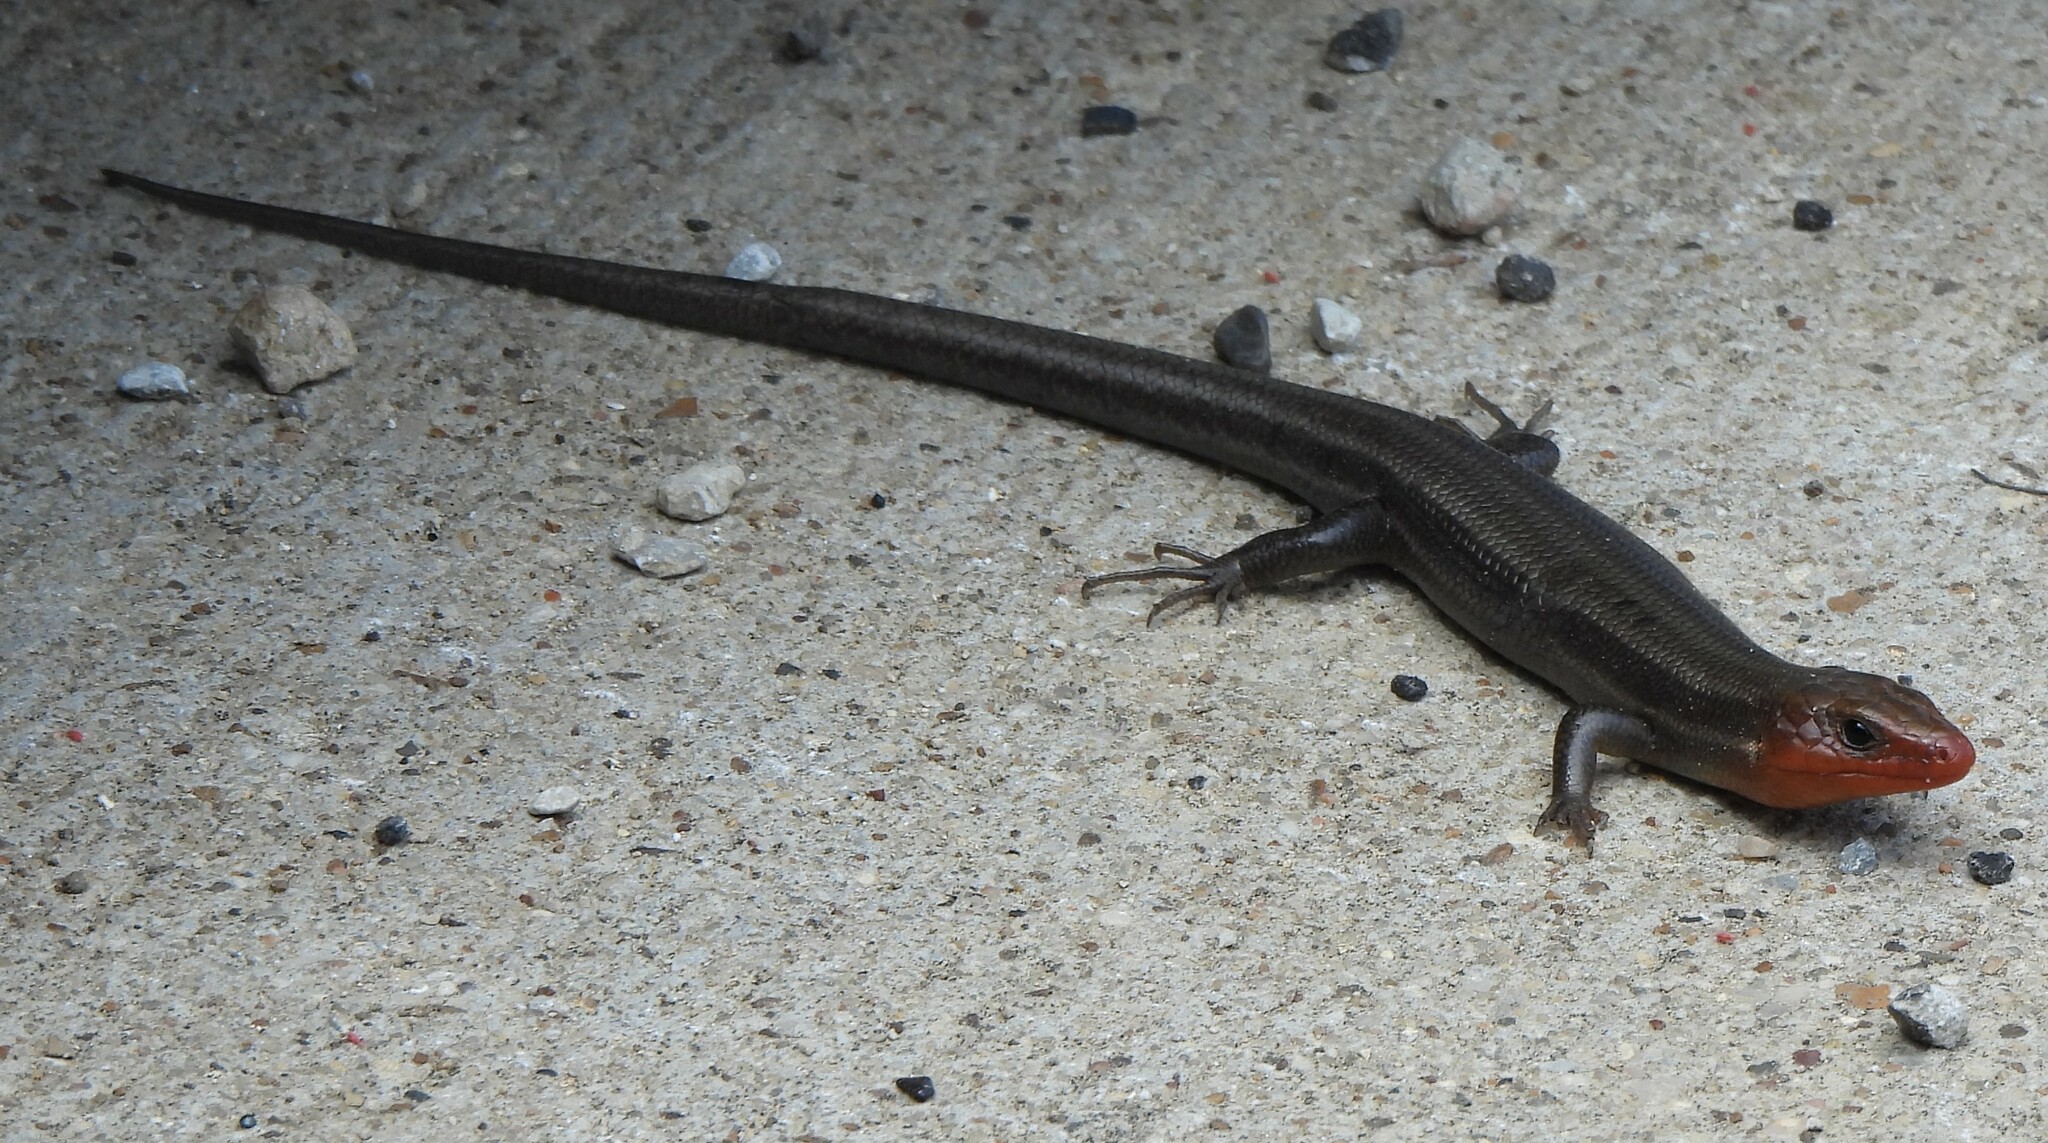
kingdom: Animalia
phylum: Chordata
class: Squamata
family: Scincidae
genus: Plestiodon
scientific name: Plestiodon fasciatus
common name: Five-lined skink
